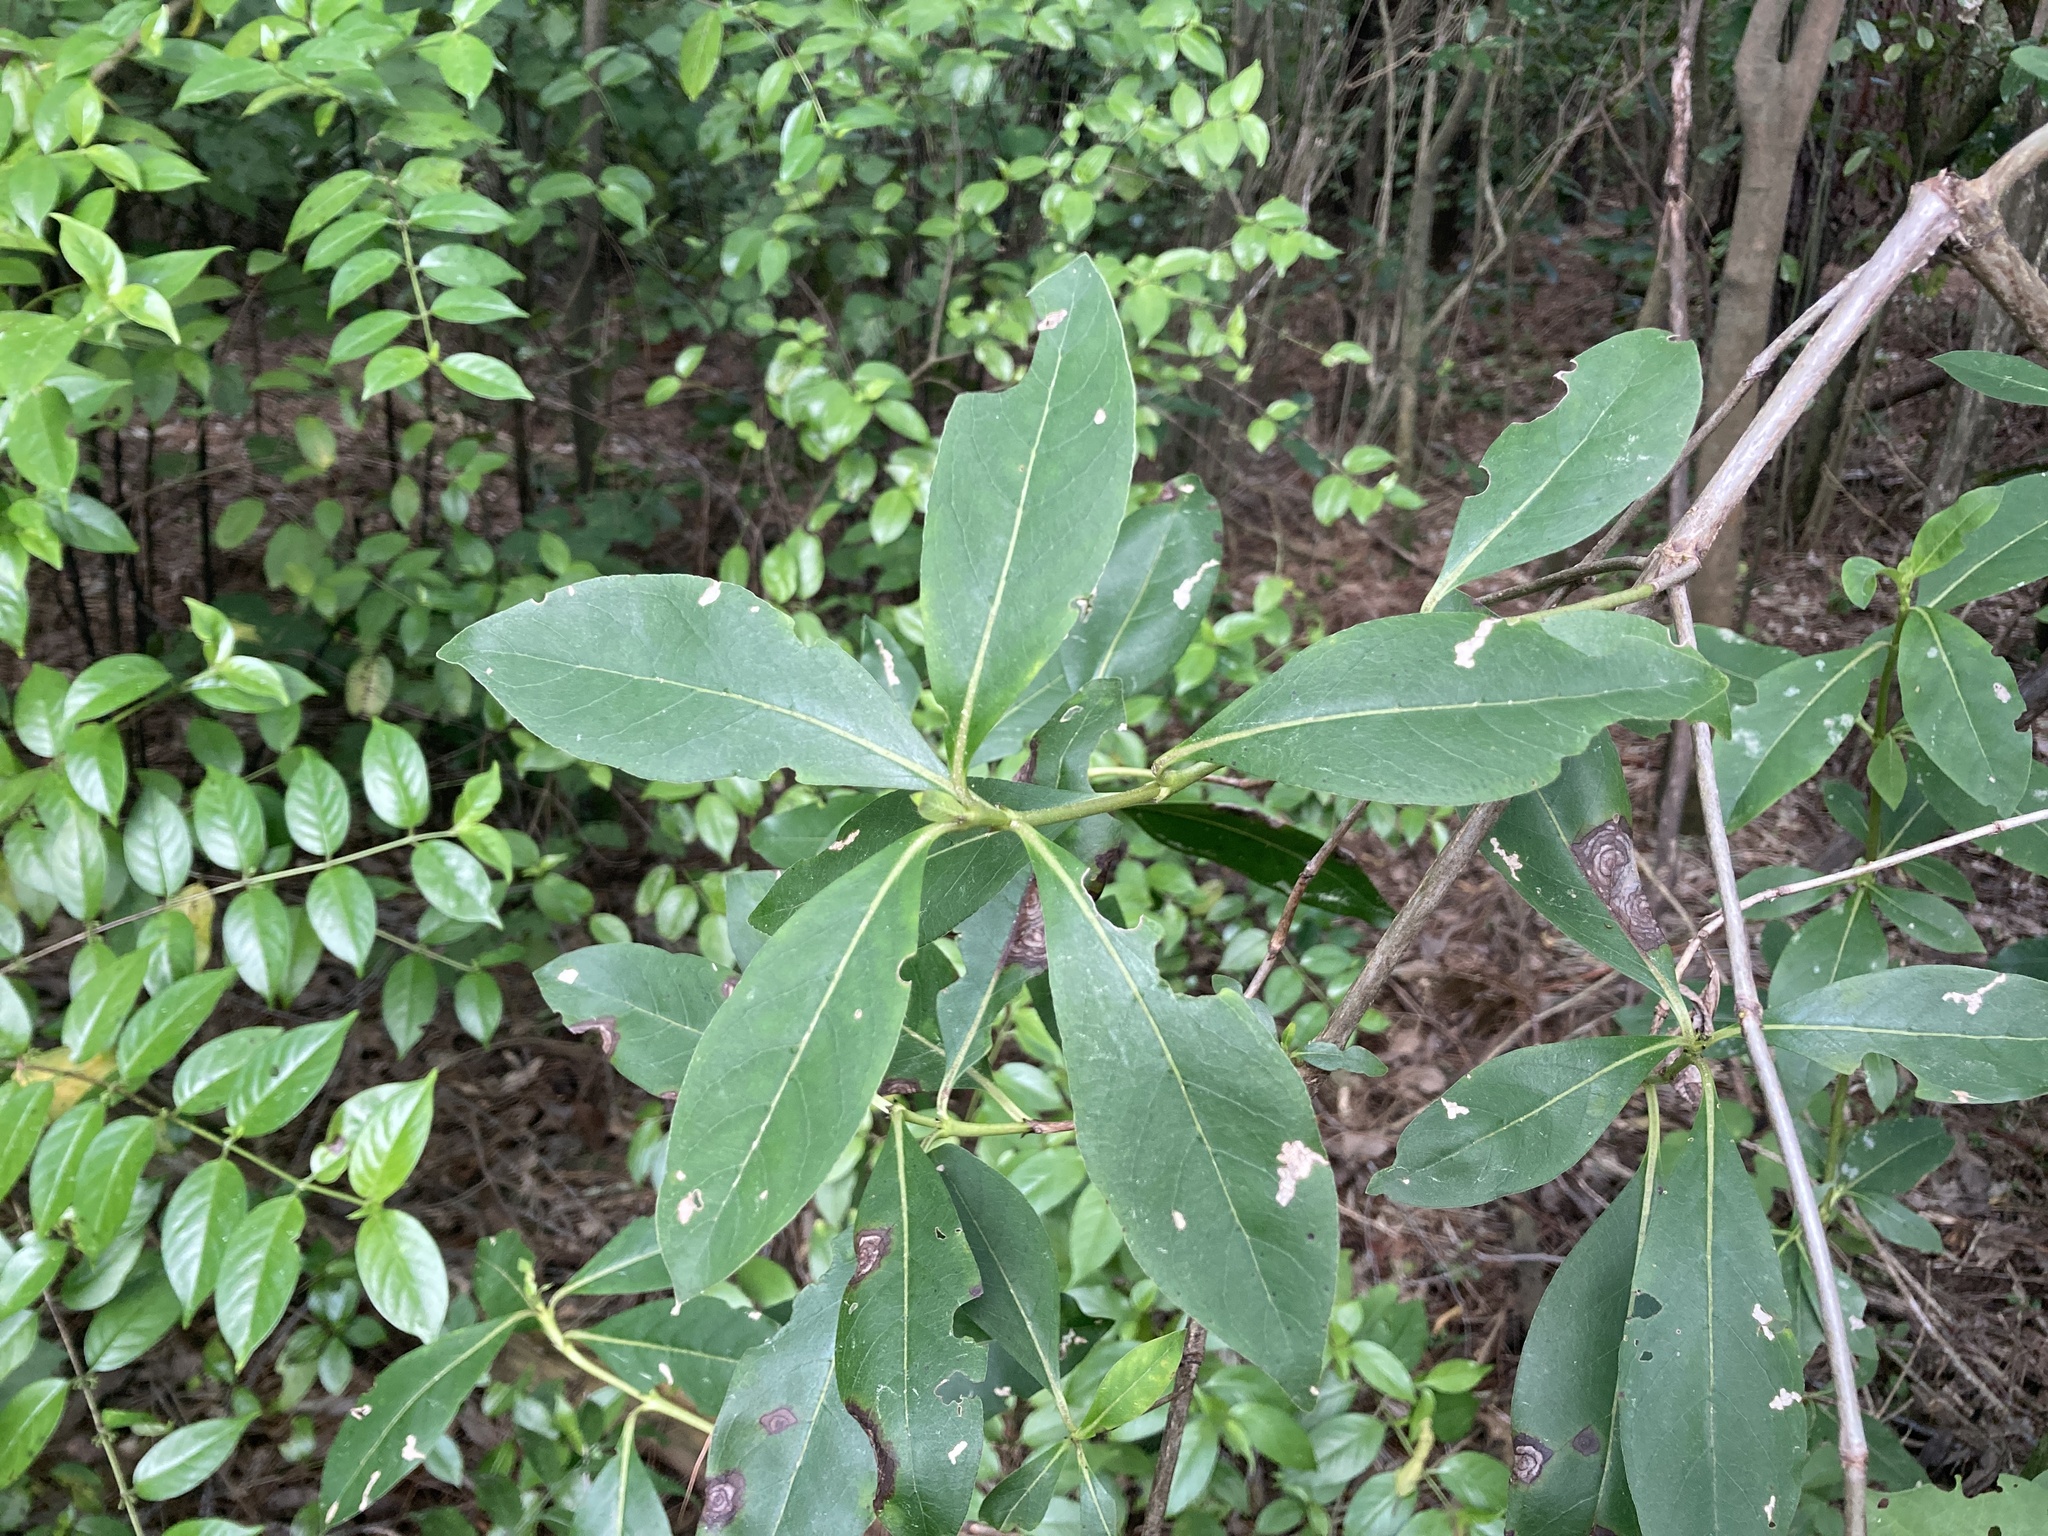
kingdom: Plantae
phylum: Tracheophyta
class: Magnoliopsida
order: Gentianales
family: Rubiaceae
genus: Coprosma
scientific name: Coprosma robusta
